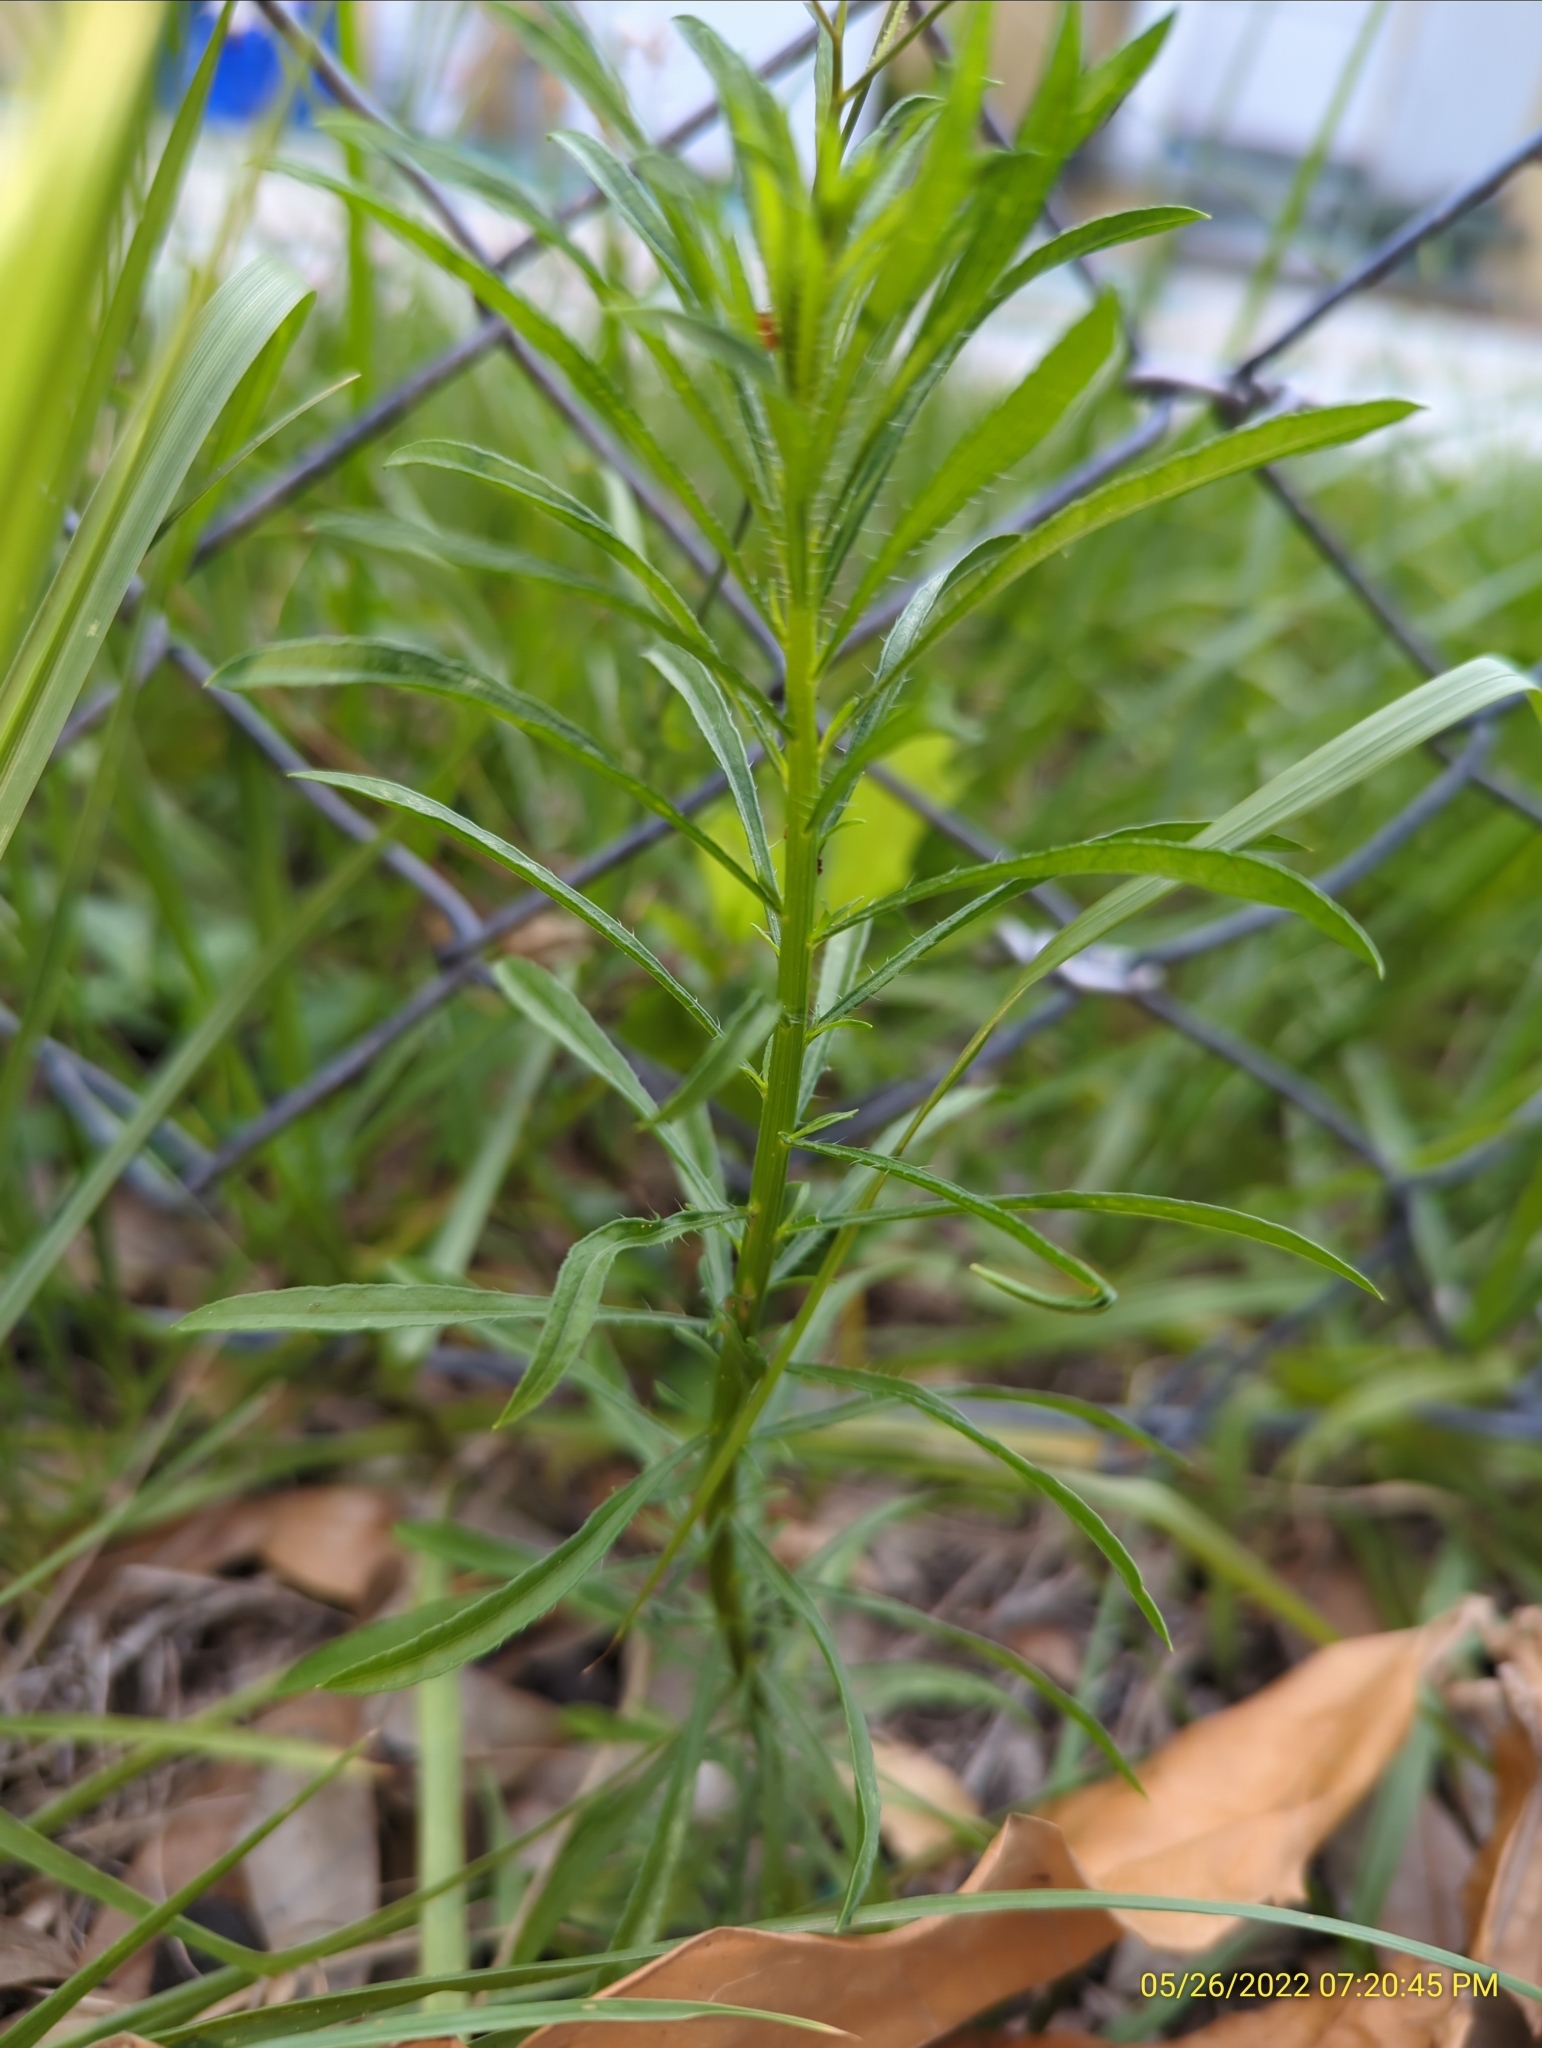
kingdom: Plantae
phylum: Tracheophyta
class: Magnoliopsida
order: Asterales
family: Asteraceae
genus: Erigeron
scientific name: Erigeron canadensis
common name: Canadian fleabane
